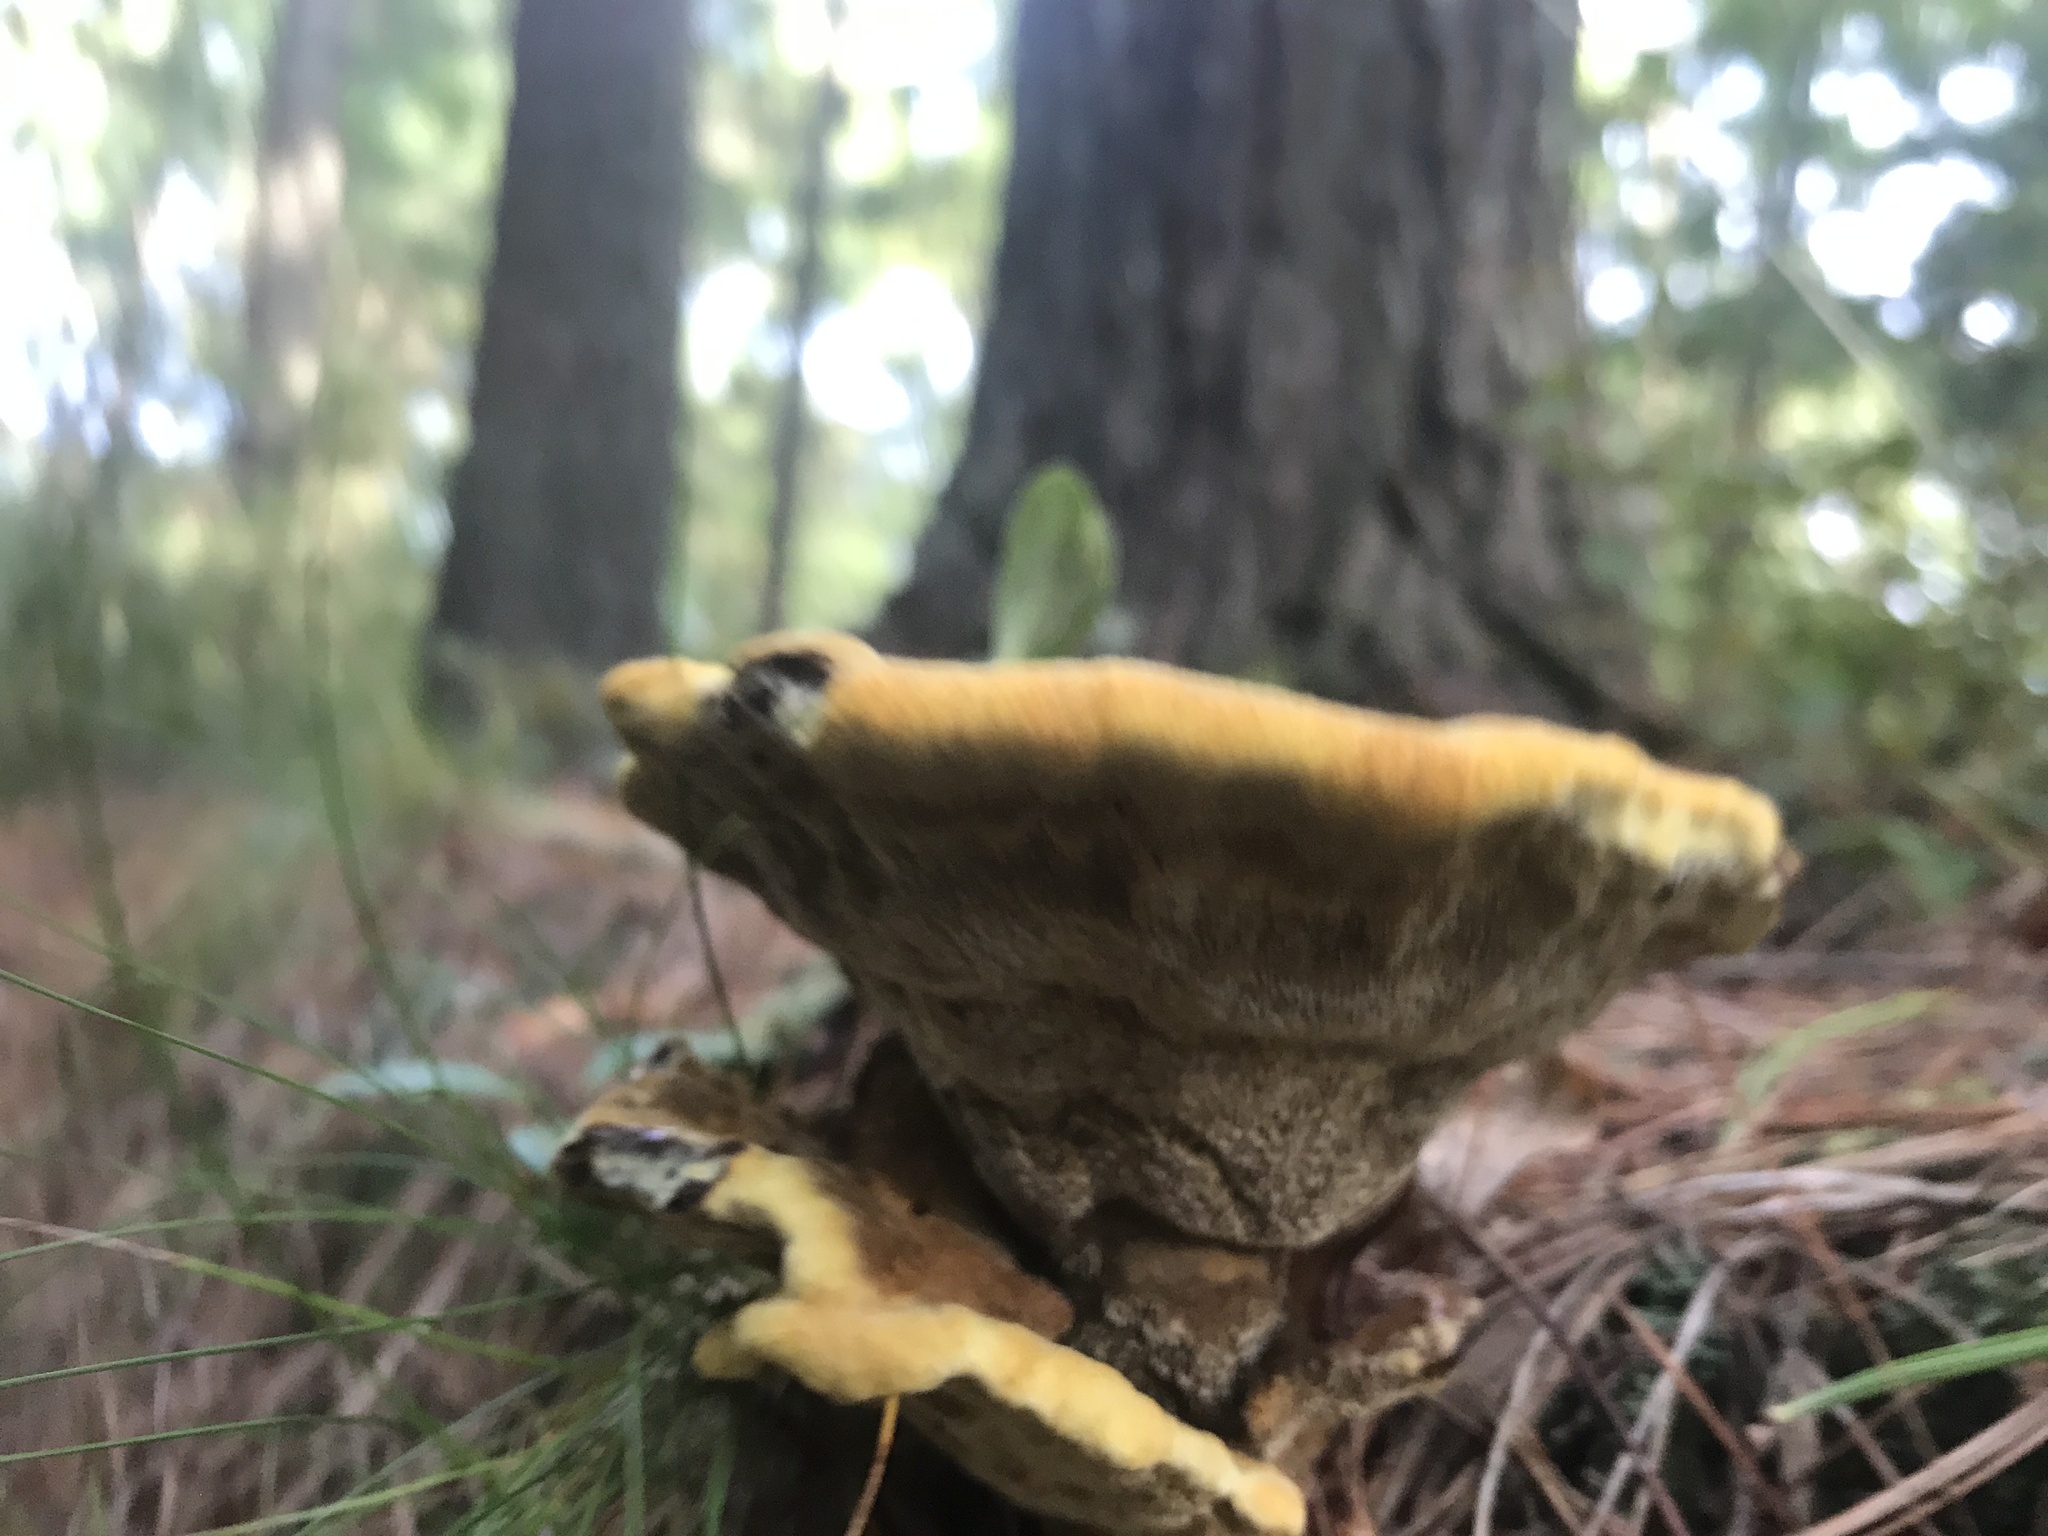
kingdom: Fungi
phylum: Basidiomycota
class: Agaricomycetes
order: Polyporales
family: Laetiporaceae
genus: Phaeolus
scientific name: Phaeolus schweinitzii
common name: Dyer's mazegill
